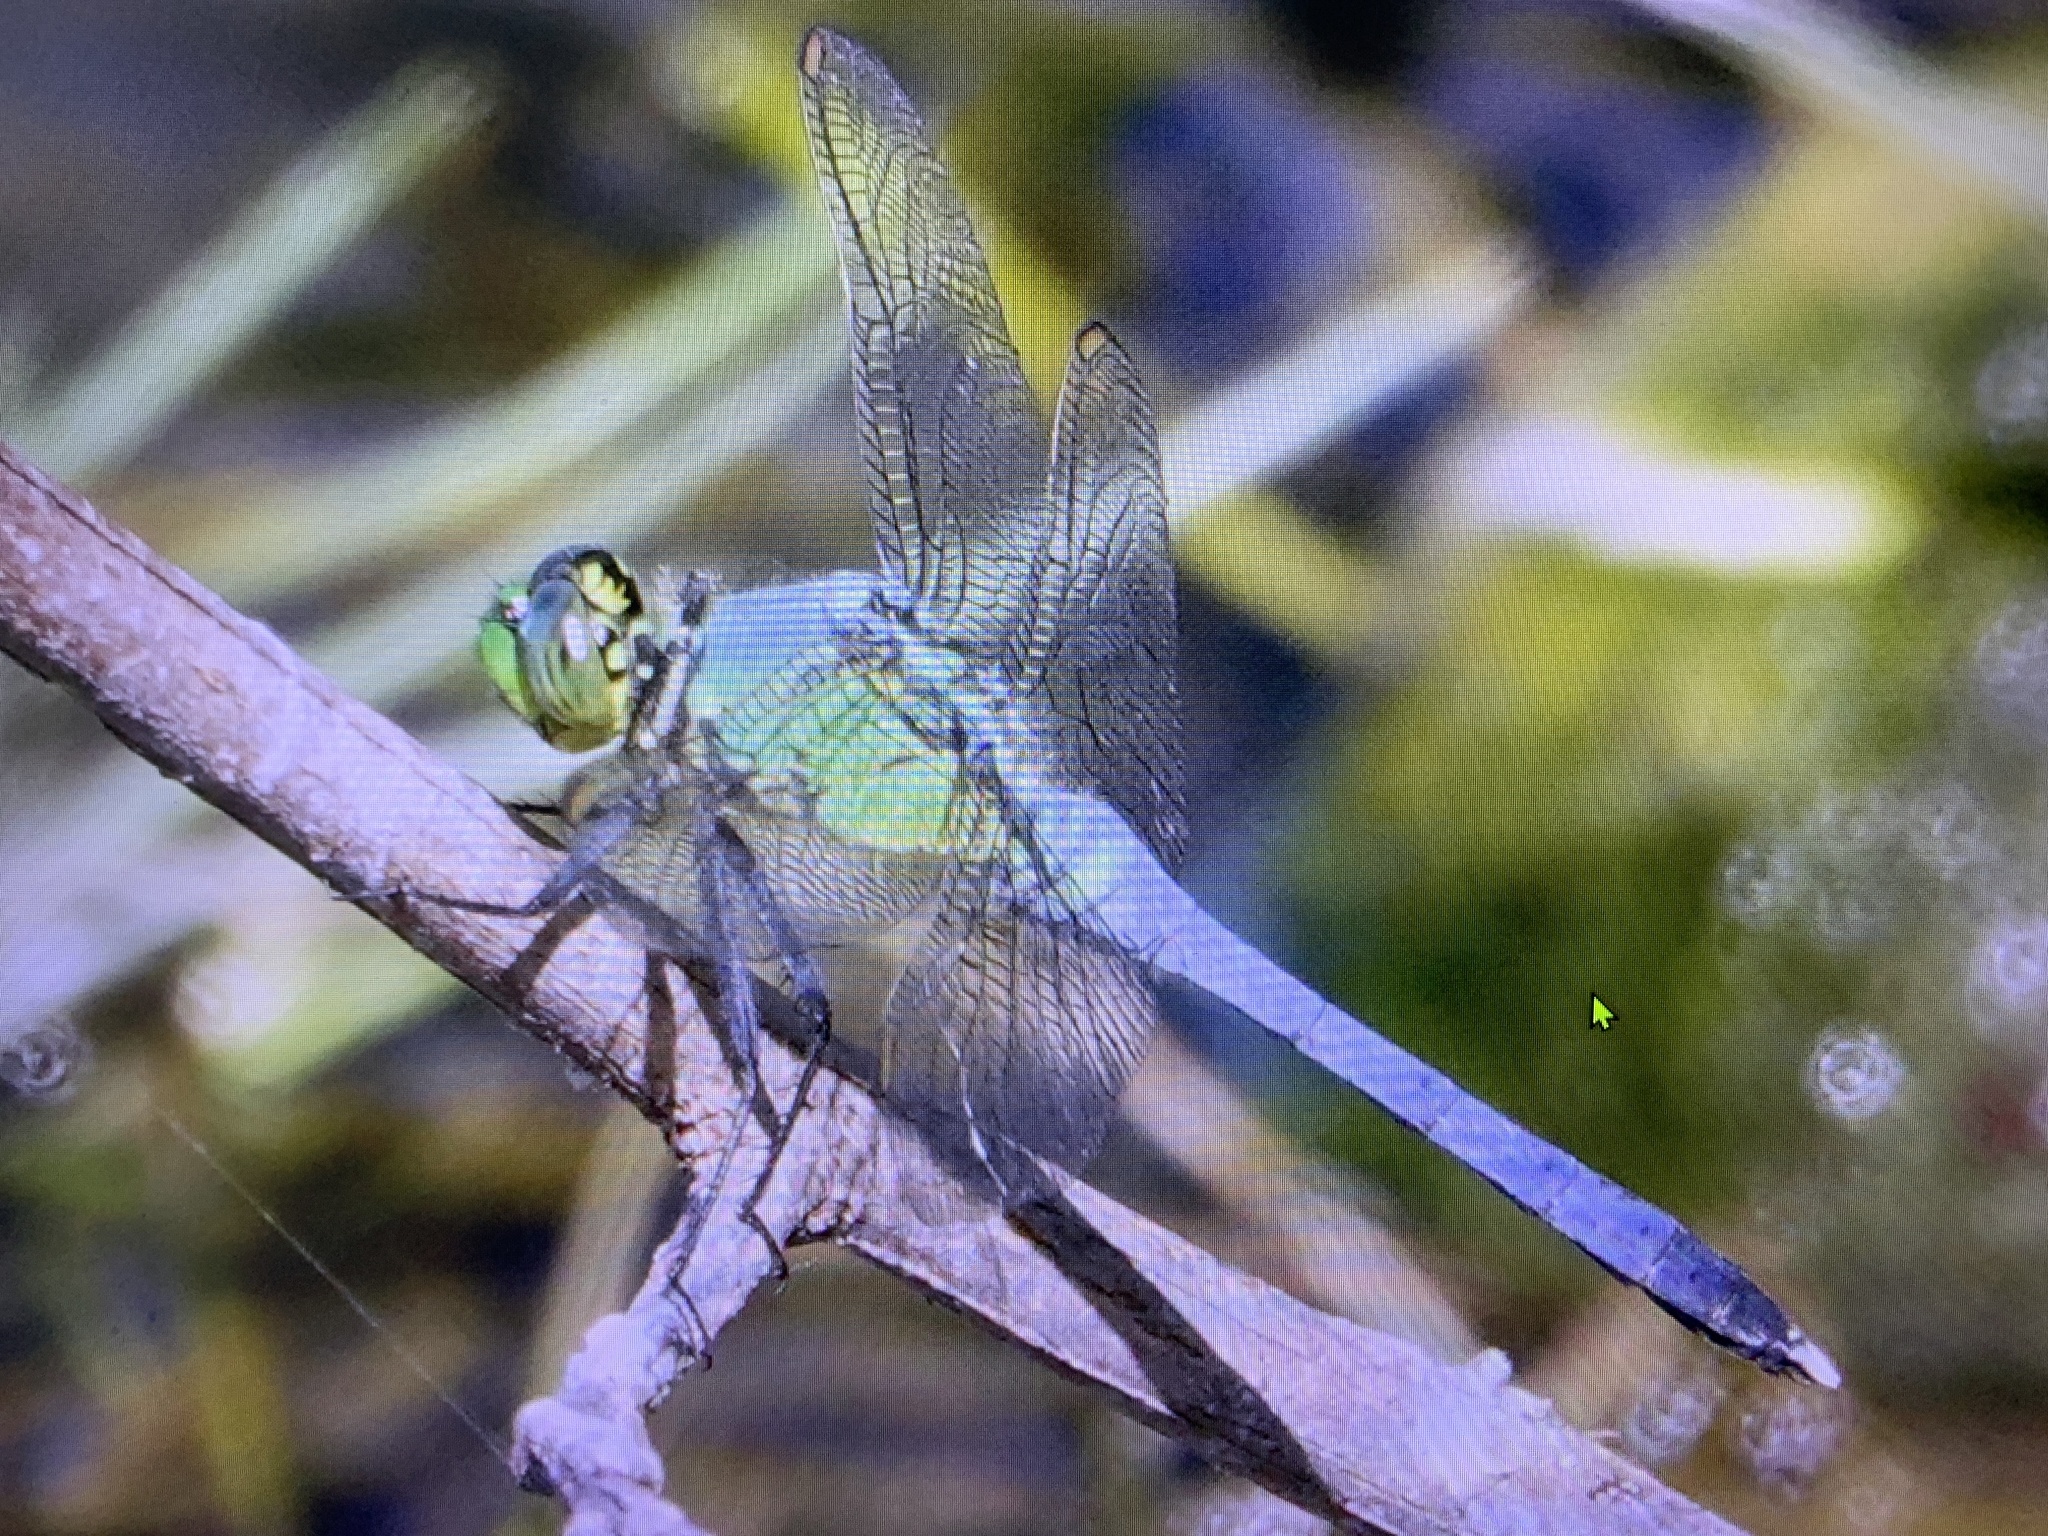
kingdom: Animalia
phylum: Arthropoda
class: Insecta
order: Odonata
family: Libellulidae
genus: Erythemis
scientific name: Erythemis simplicicollis
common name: Eastern pondhawk
